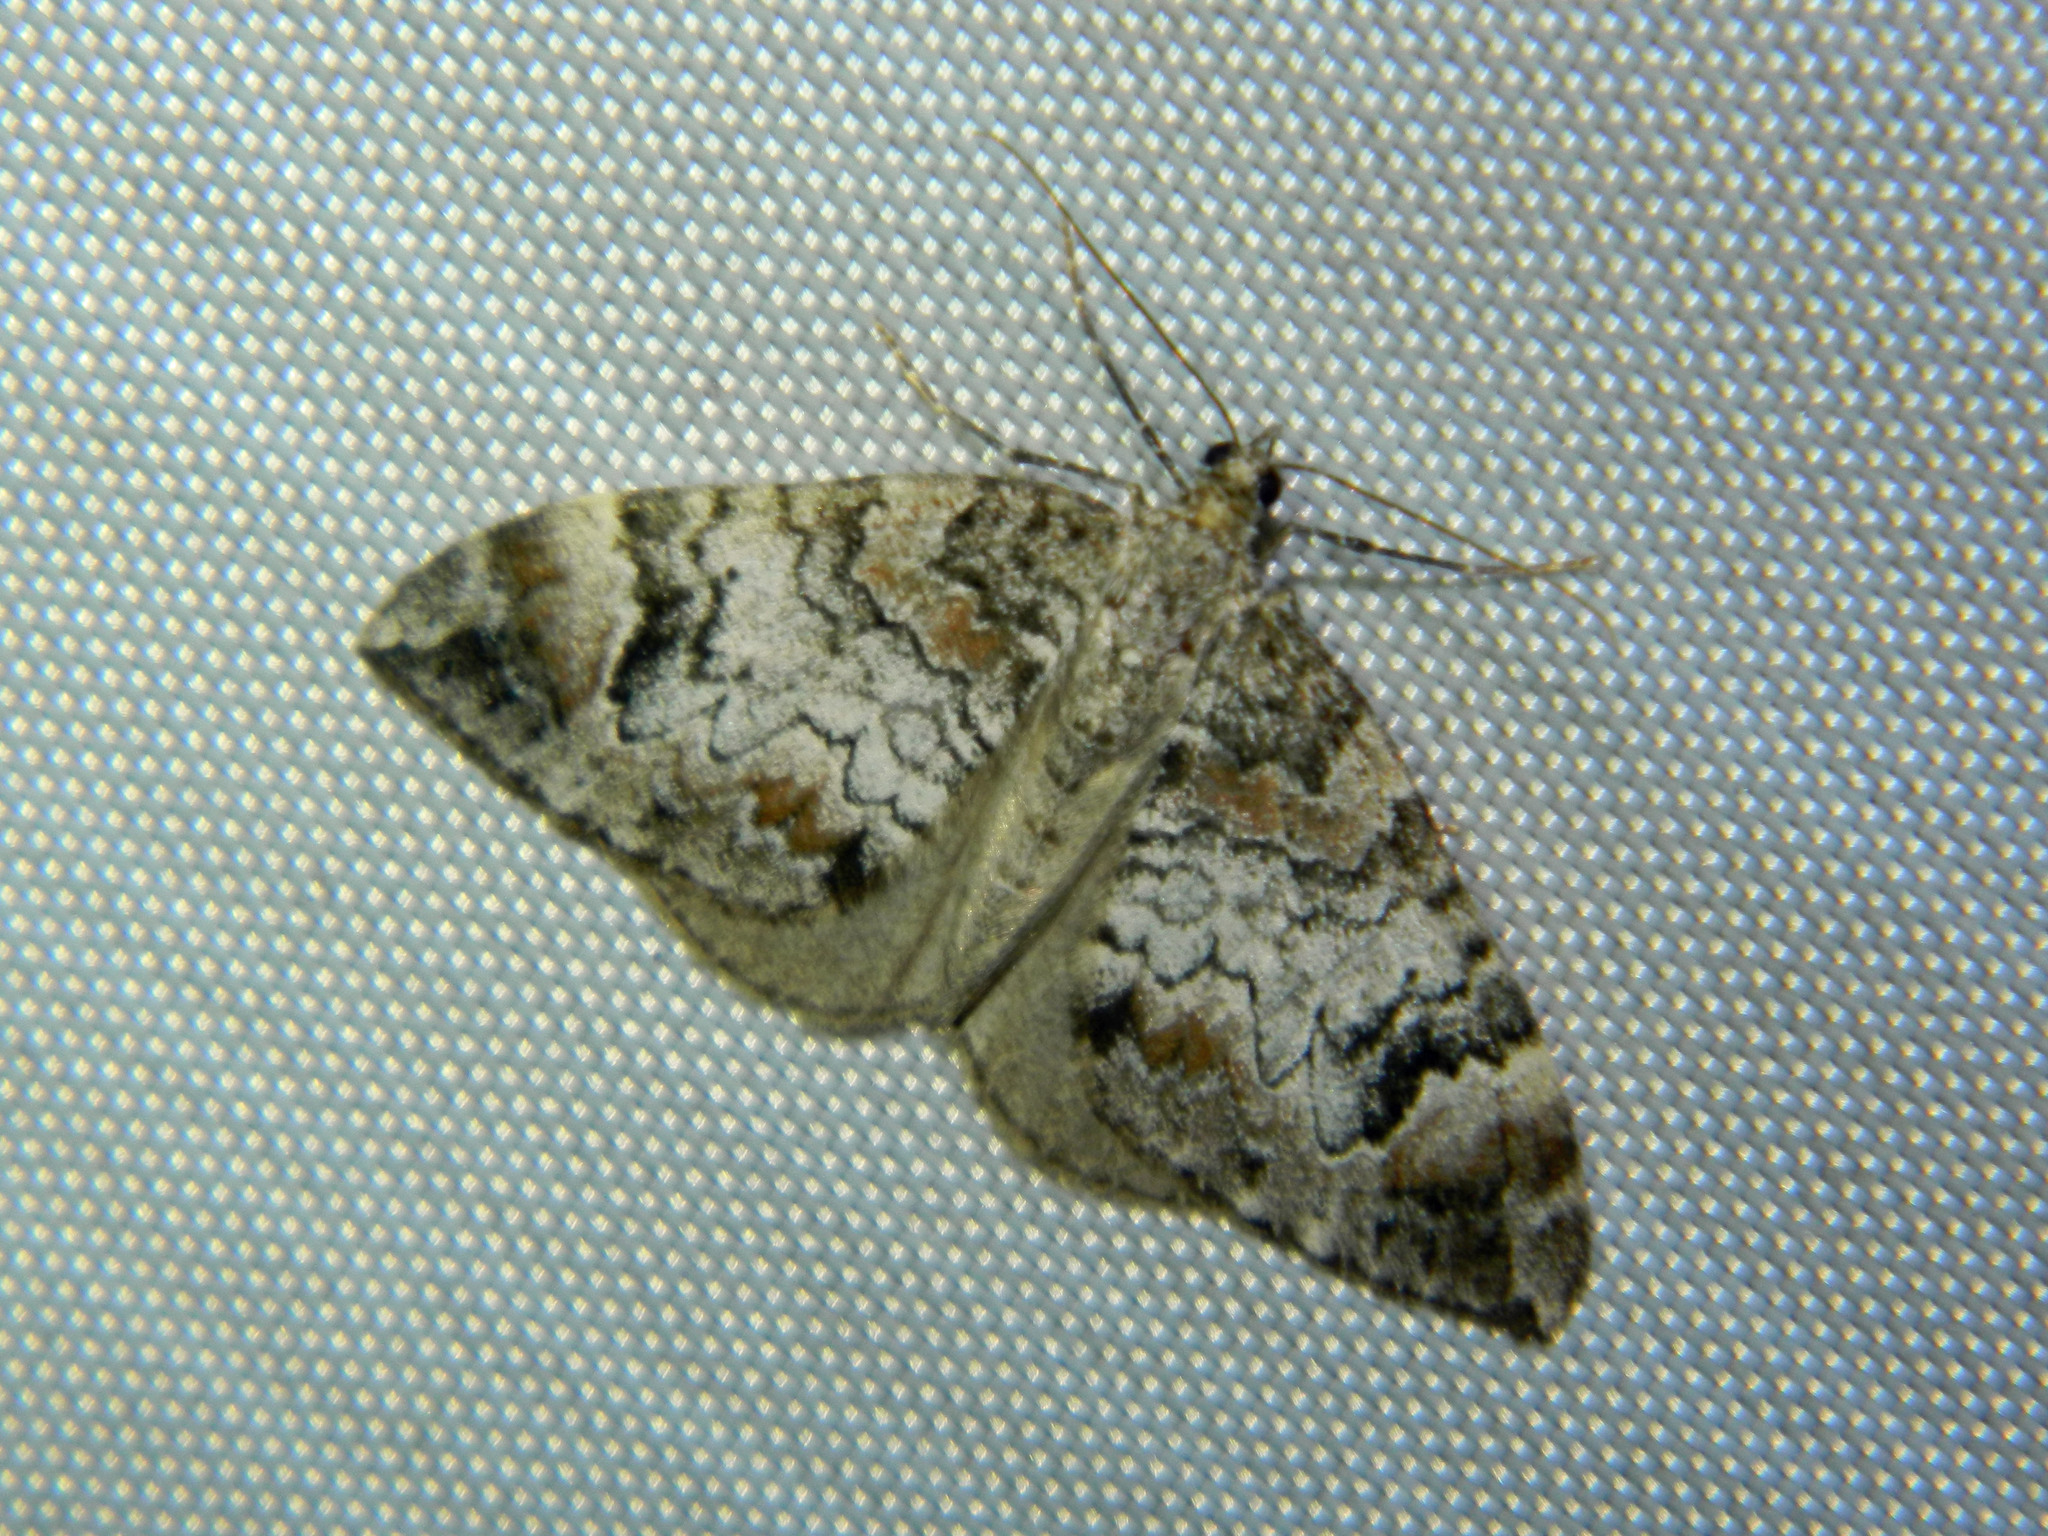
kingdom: Animalia
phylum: Arthropoda
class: Insecta
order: Lepidoptera
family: Geometridae
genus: Dysstroma
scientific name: Dysstroma citrata
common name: Dark marbled carpet
